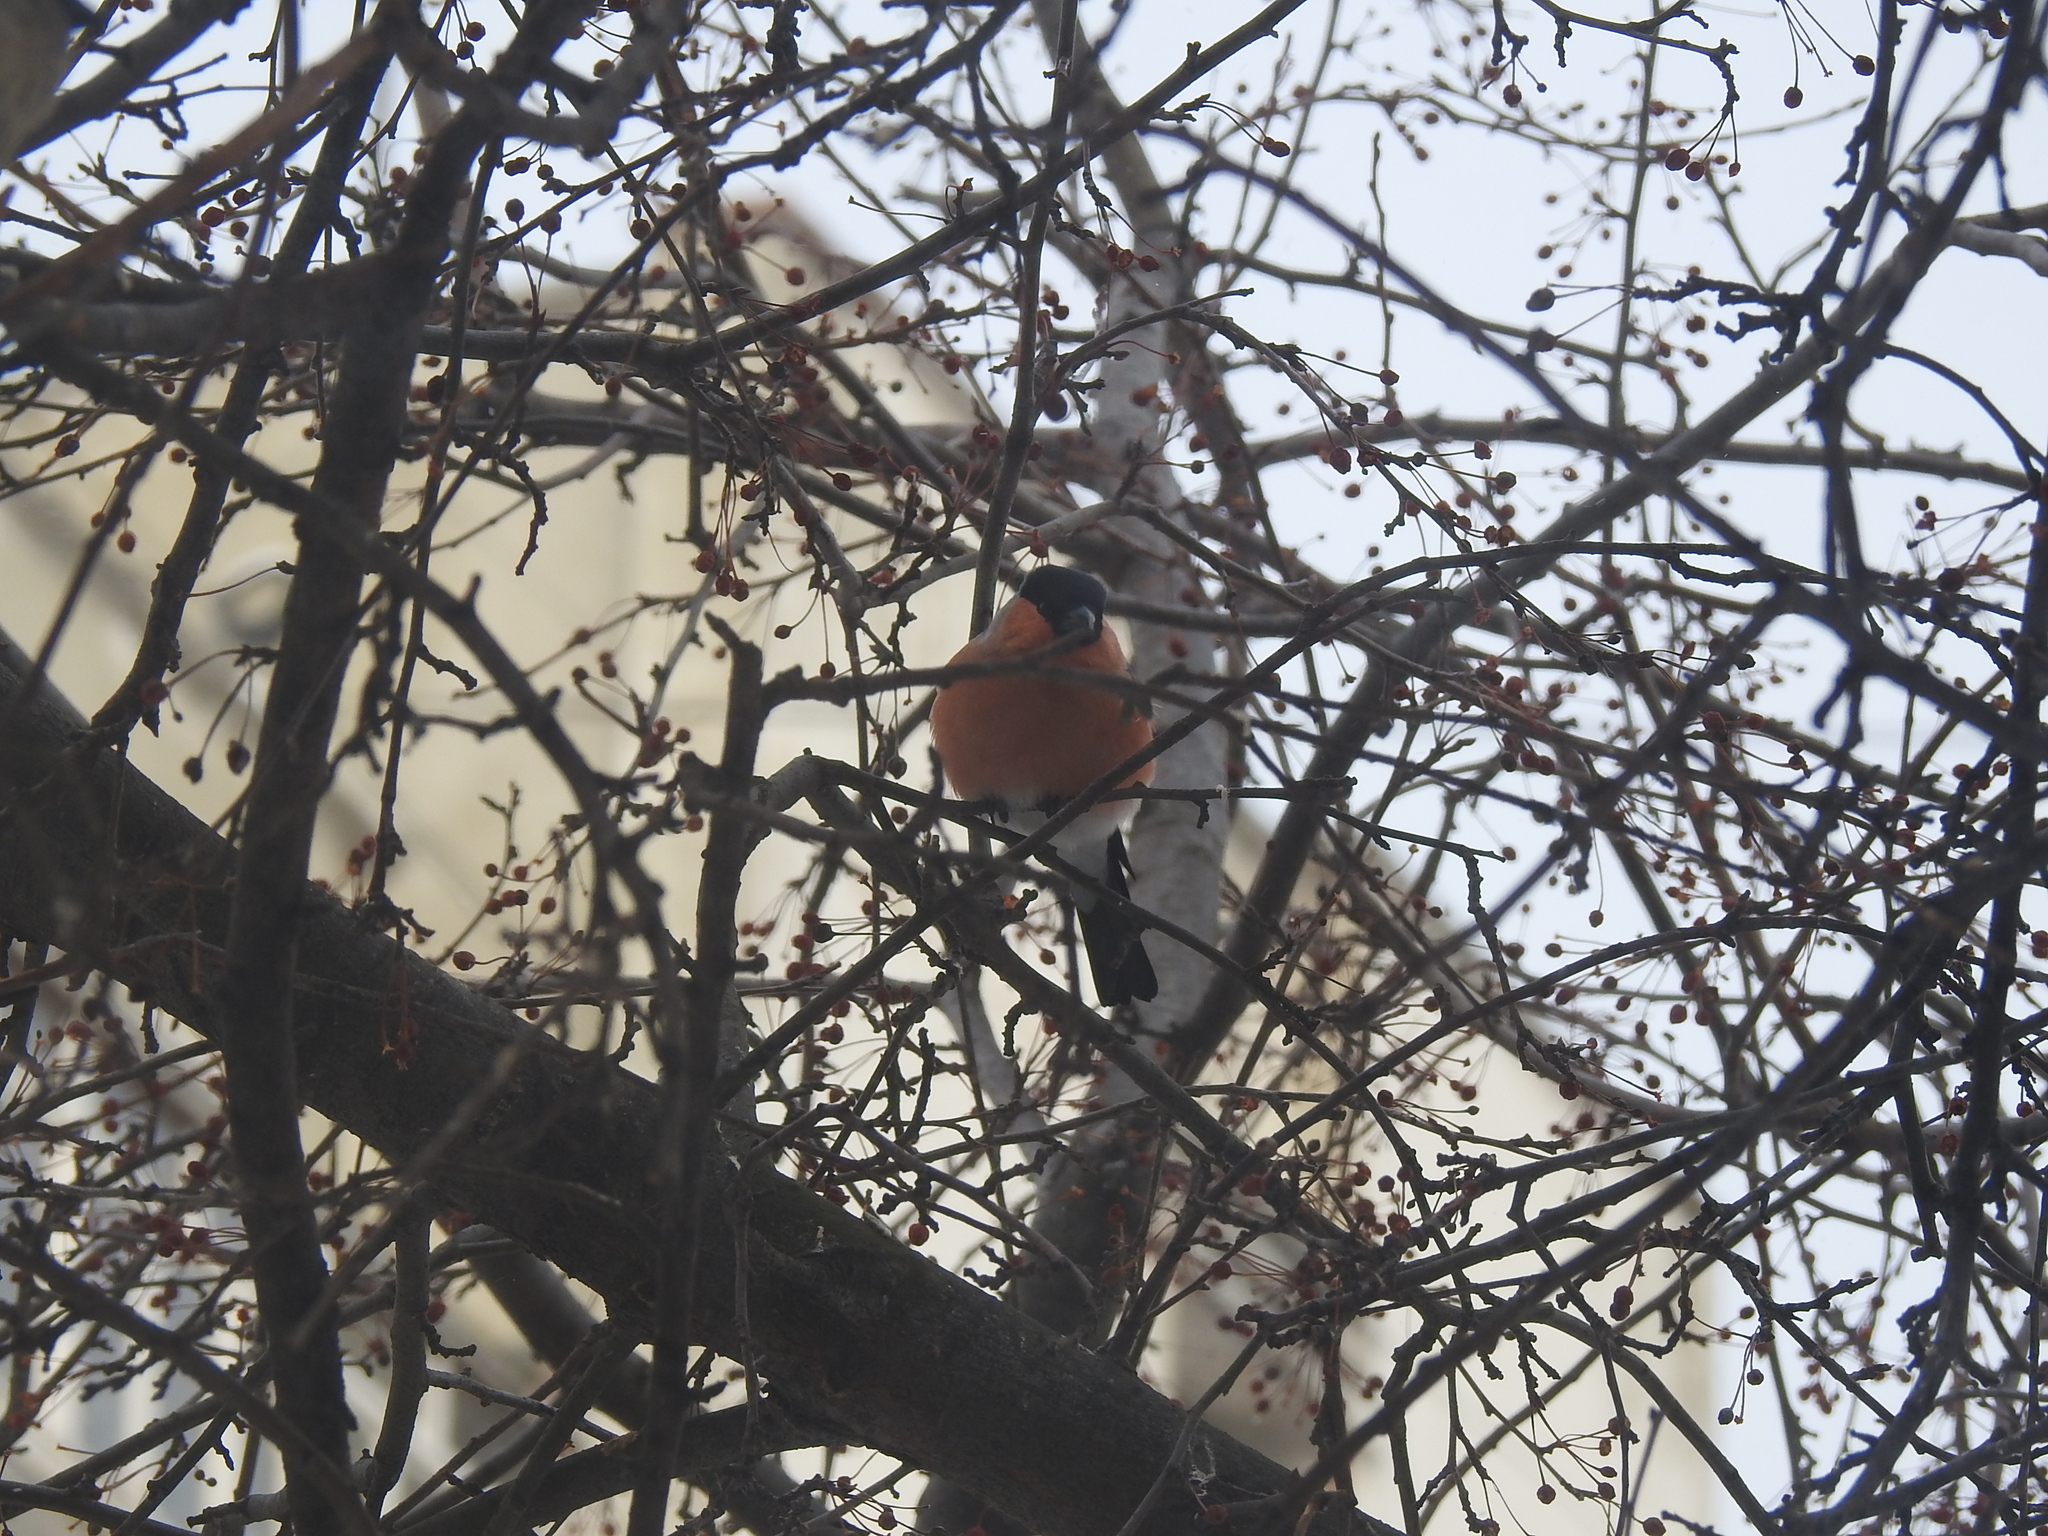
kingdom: Animalia
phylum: Chordata
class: Aves
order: Passeriformes
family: Fringillidae
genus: Pyrrhula
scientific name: Pyrrhula pyrrhula
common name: Eurasian bullfinch
